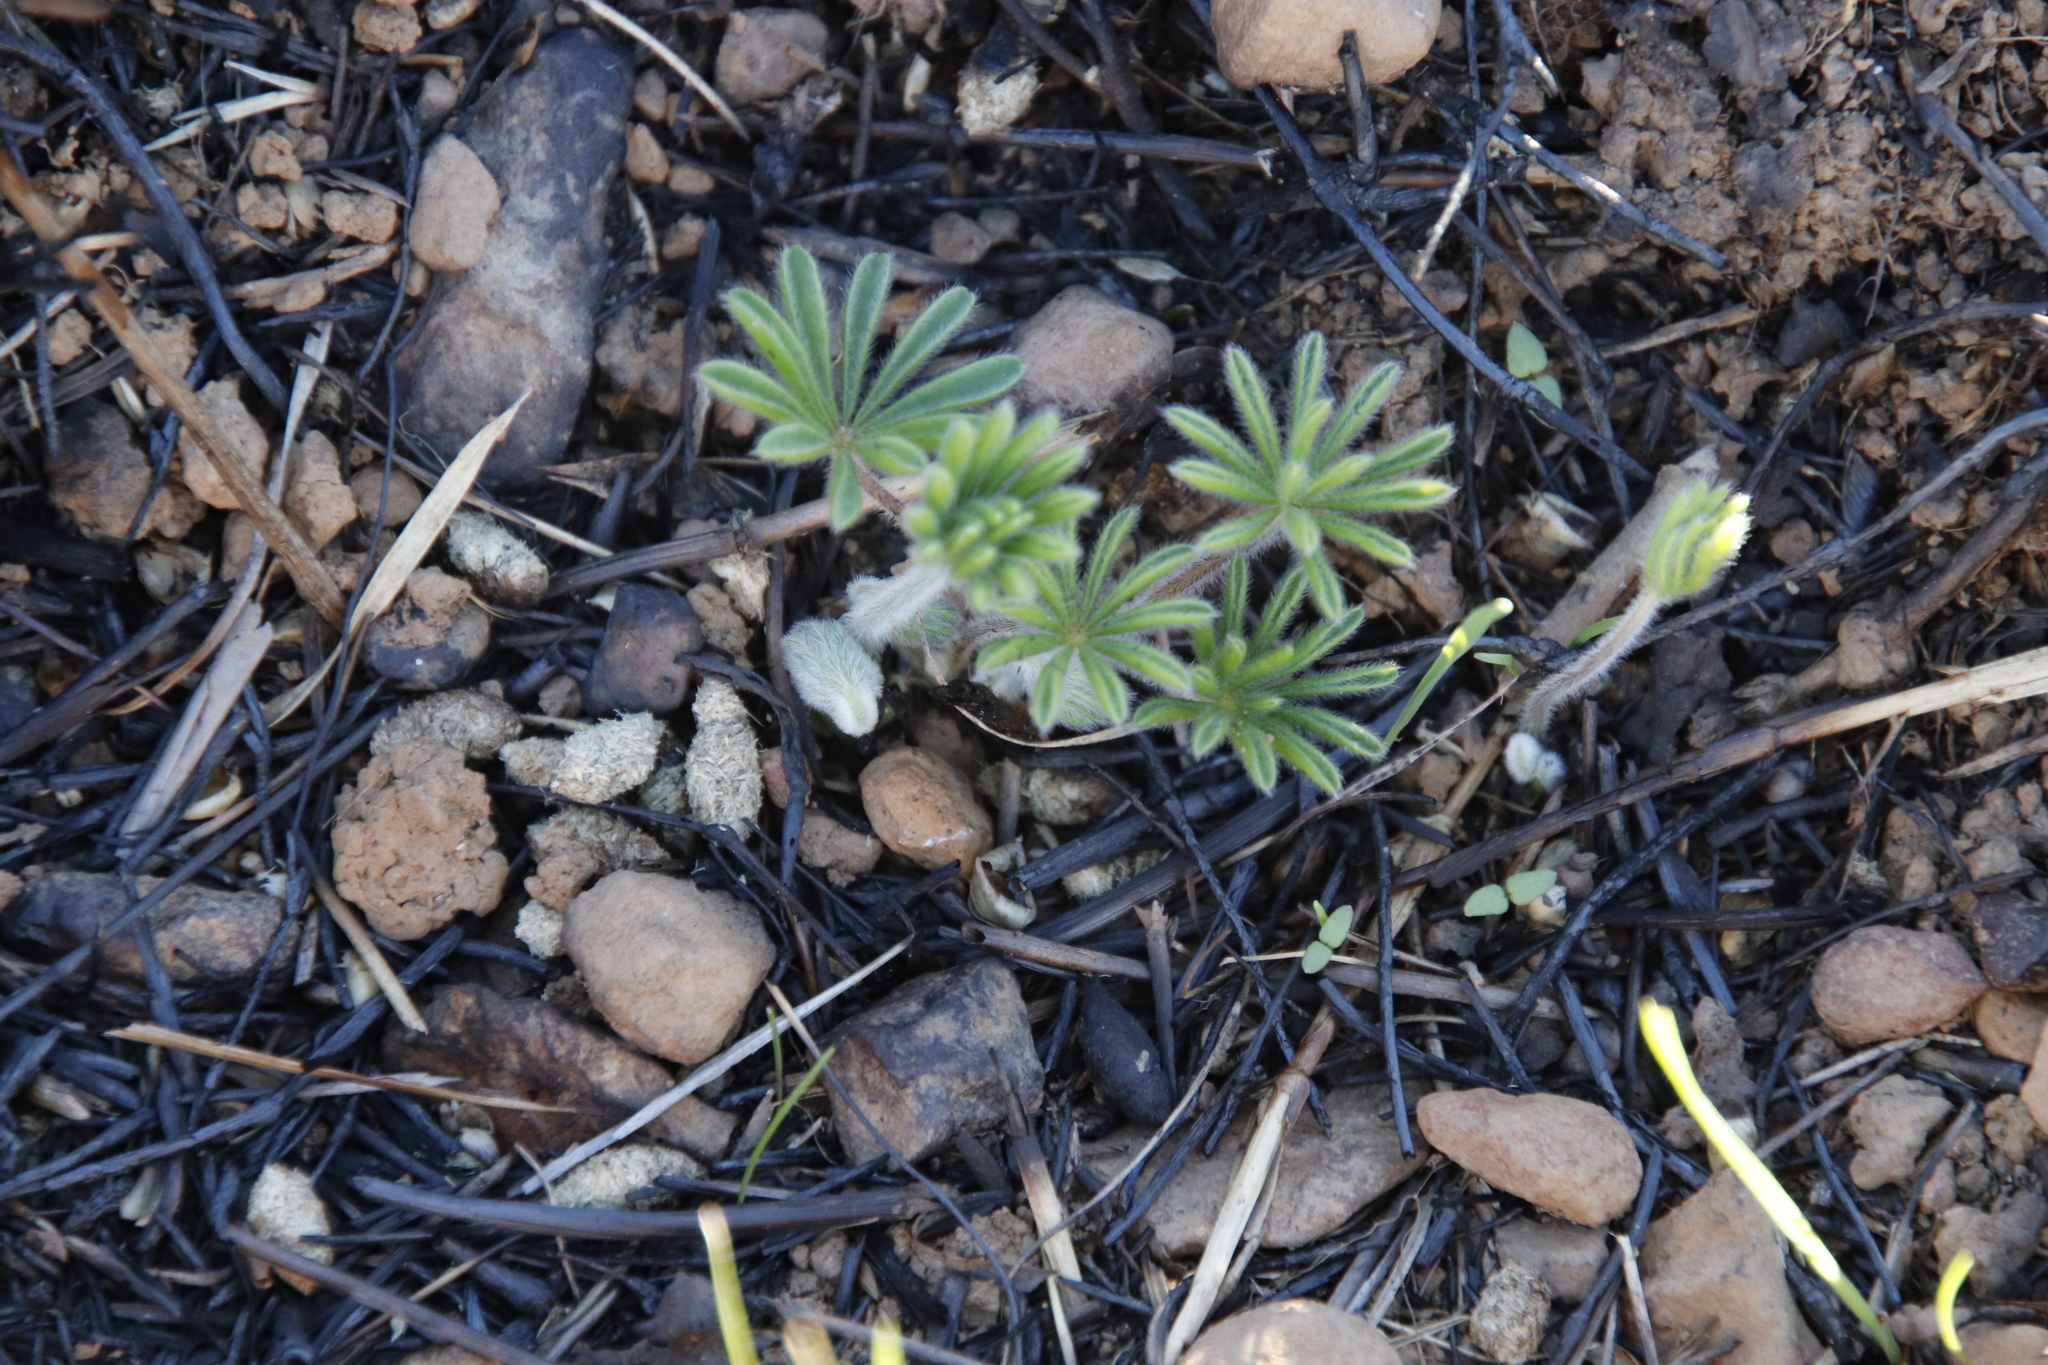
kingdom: Plantae
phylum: Tracheophyta
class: Magnoliopsida
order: Oxalidales
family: Oxalidaceae
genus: Oxalis
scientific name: Oxalis tomentosa
